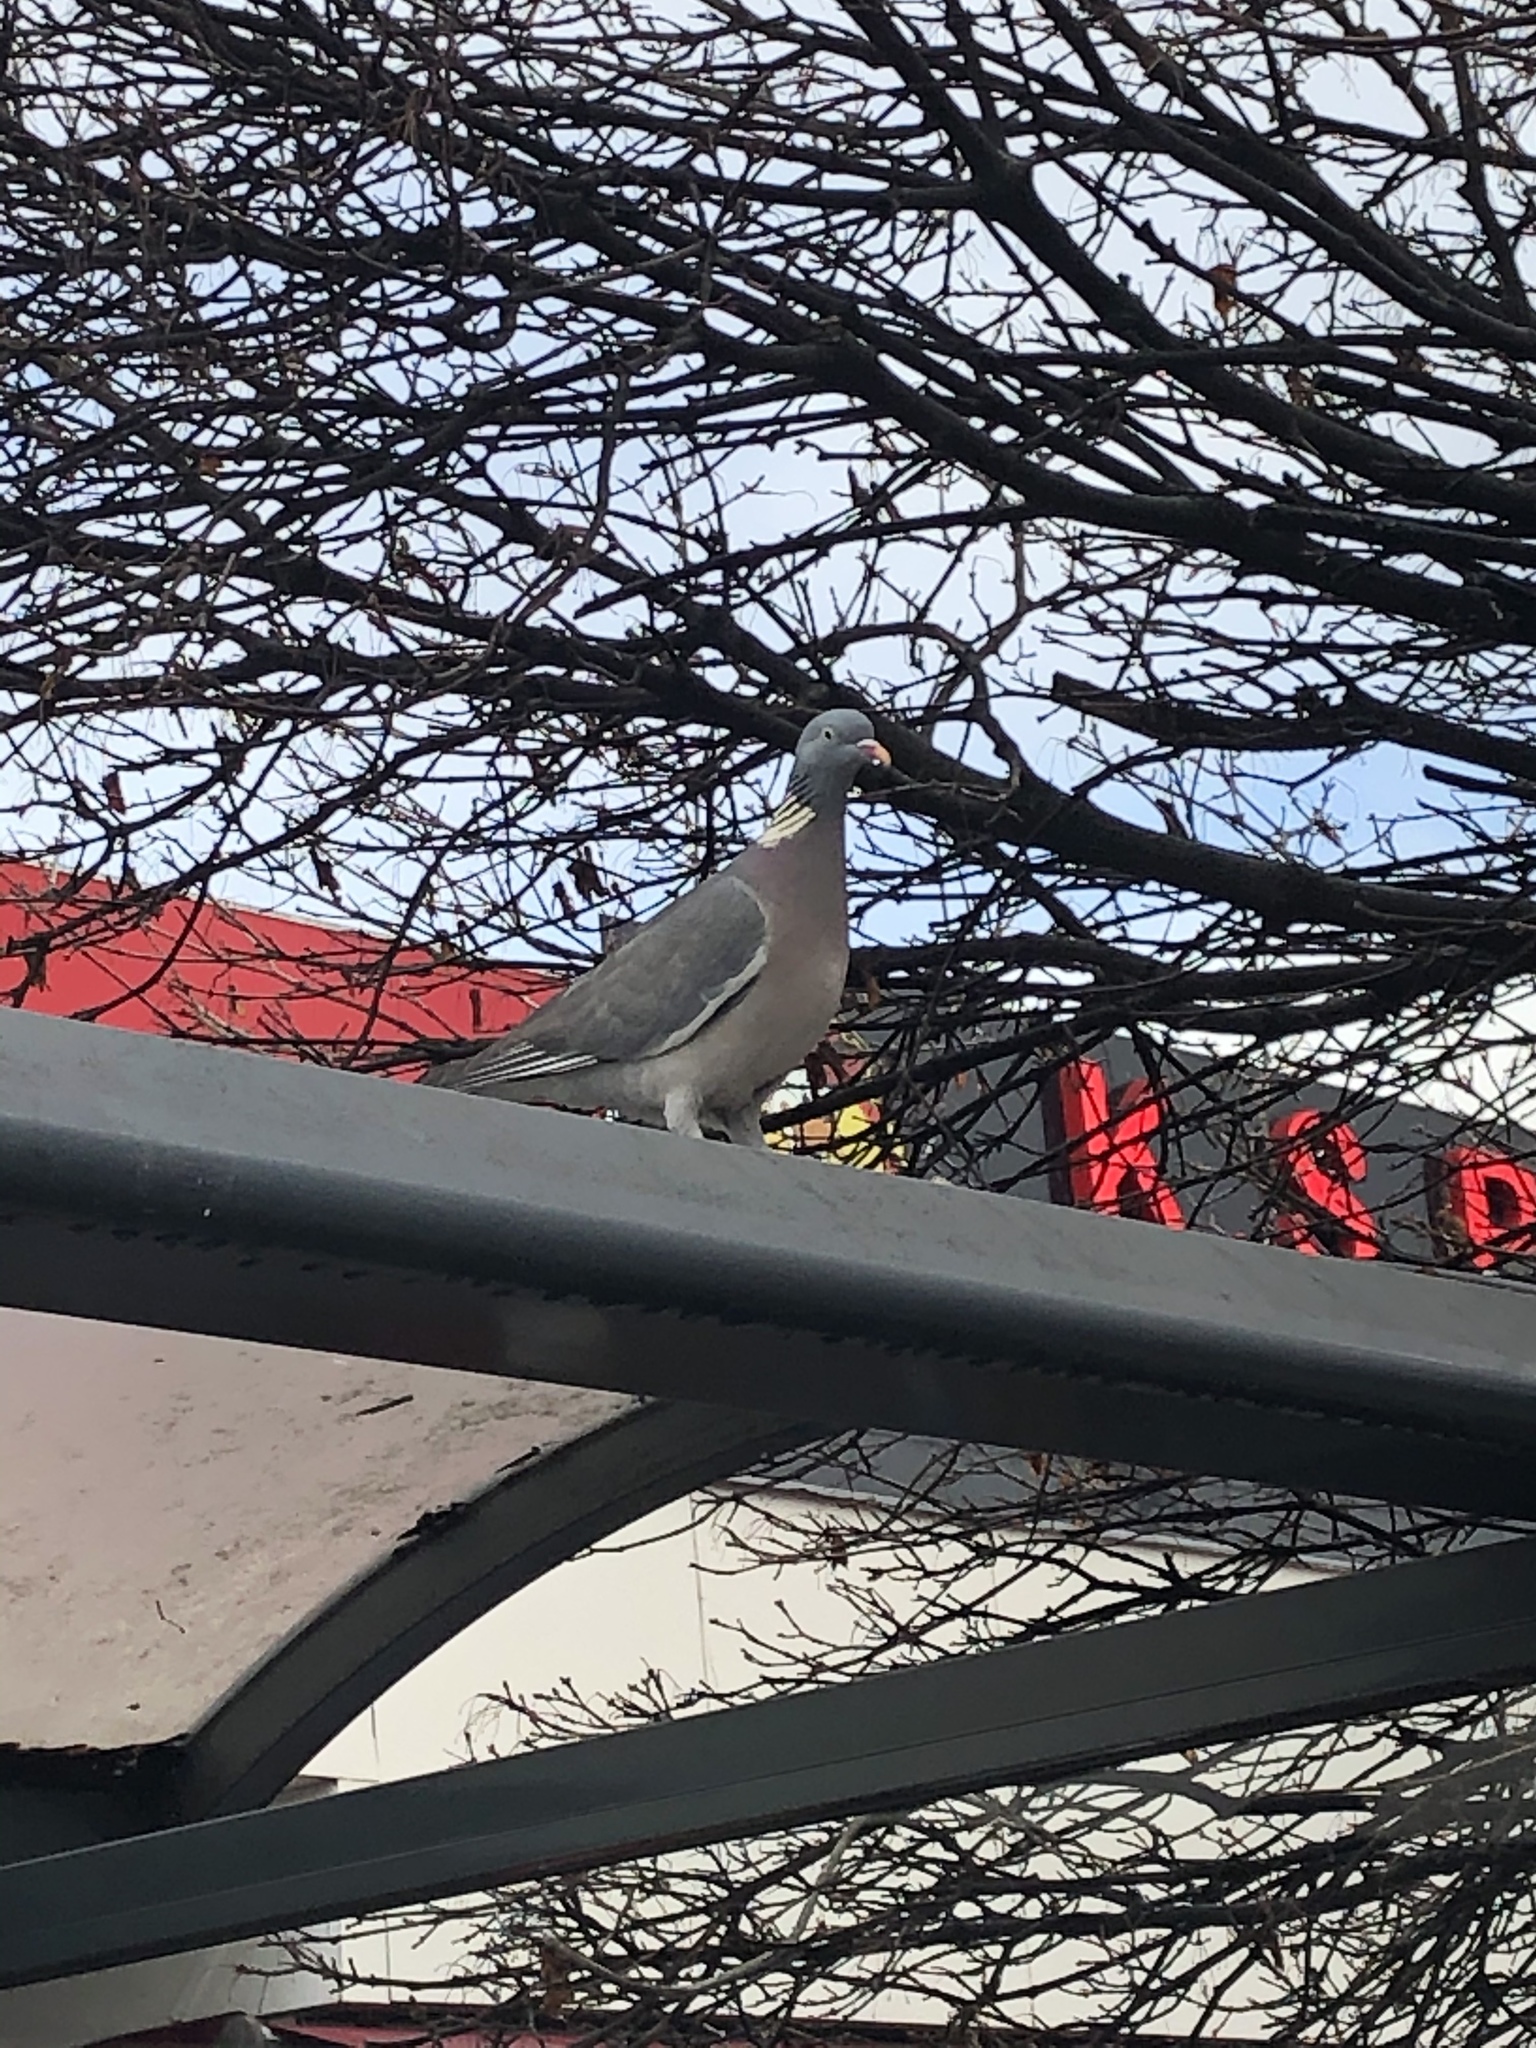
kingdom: Animalia
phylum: Chordata
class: Aves
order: Columbiformes
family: Columbidae
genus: Columba
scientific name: Columba palumbus
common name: Common wood pigeon
